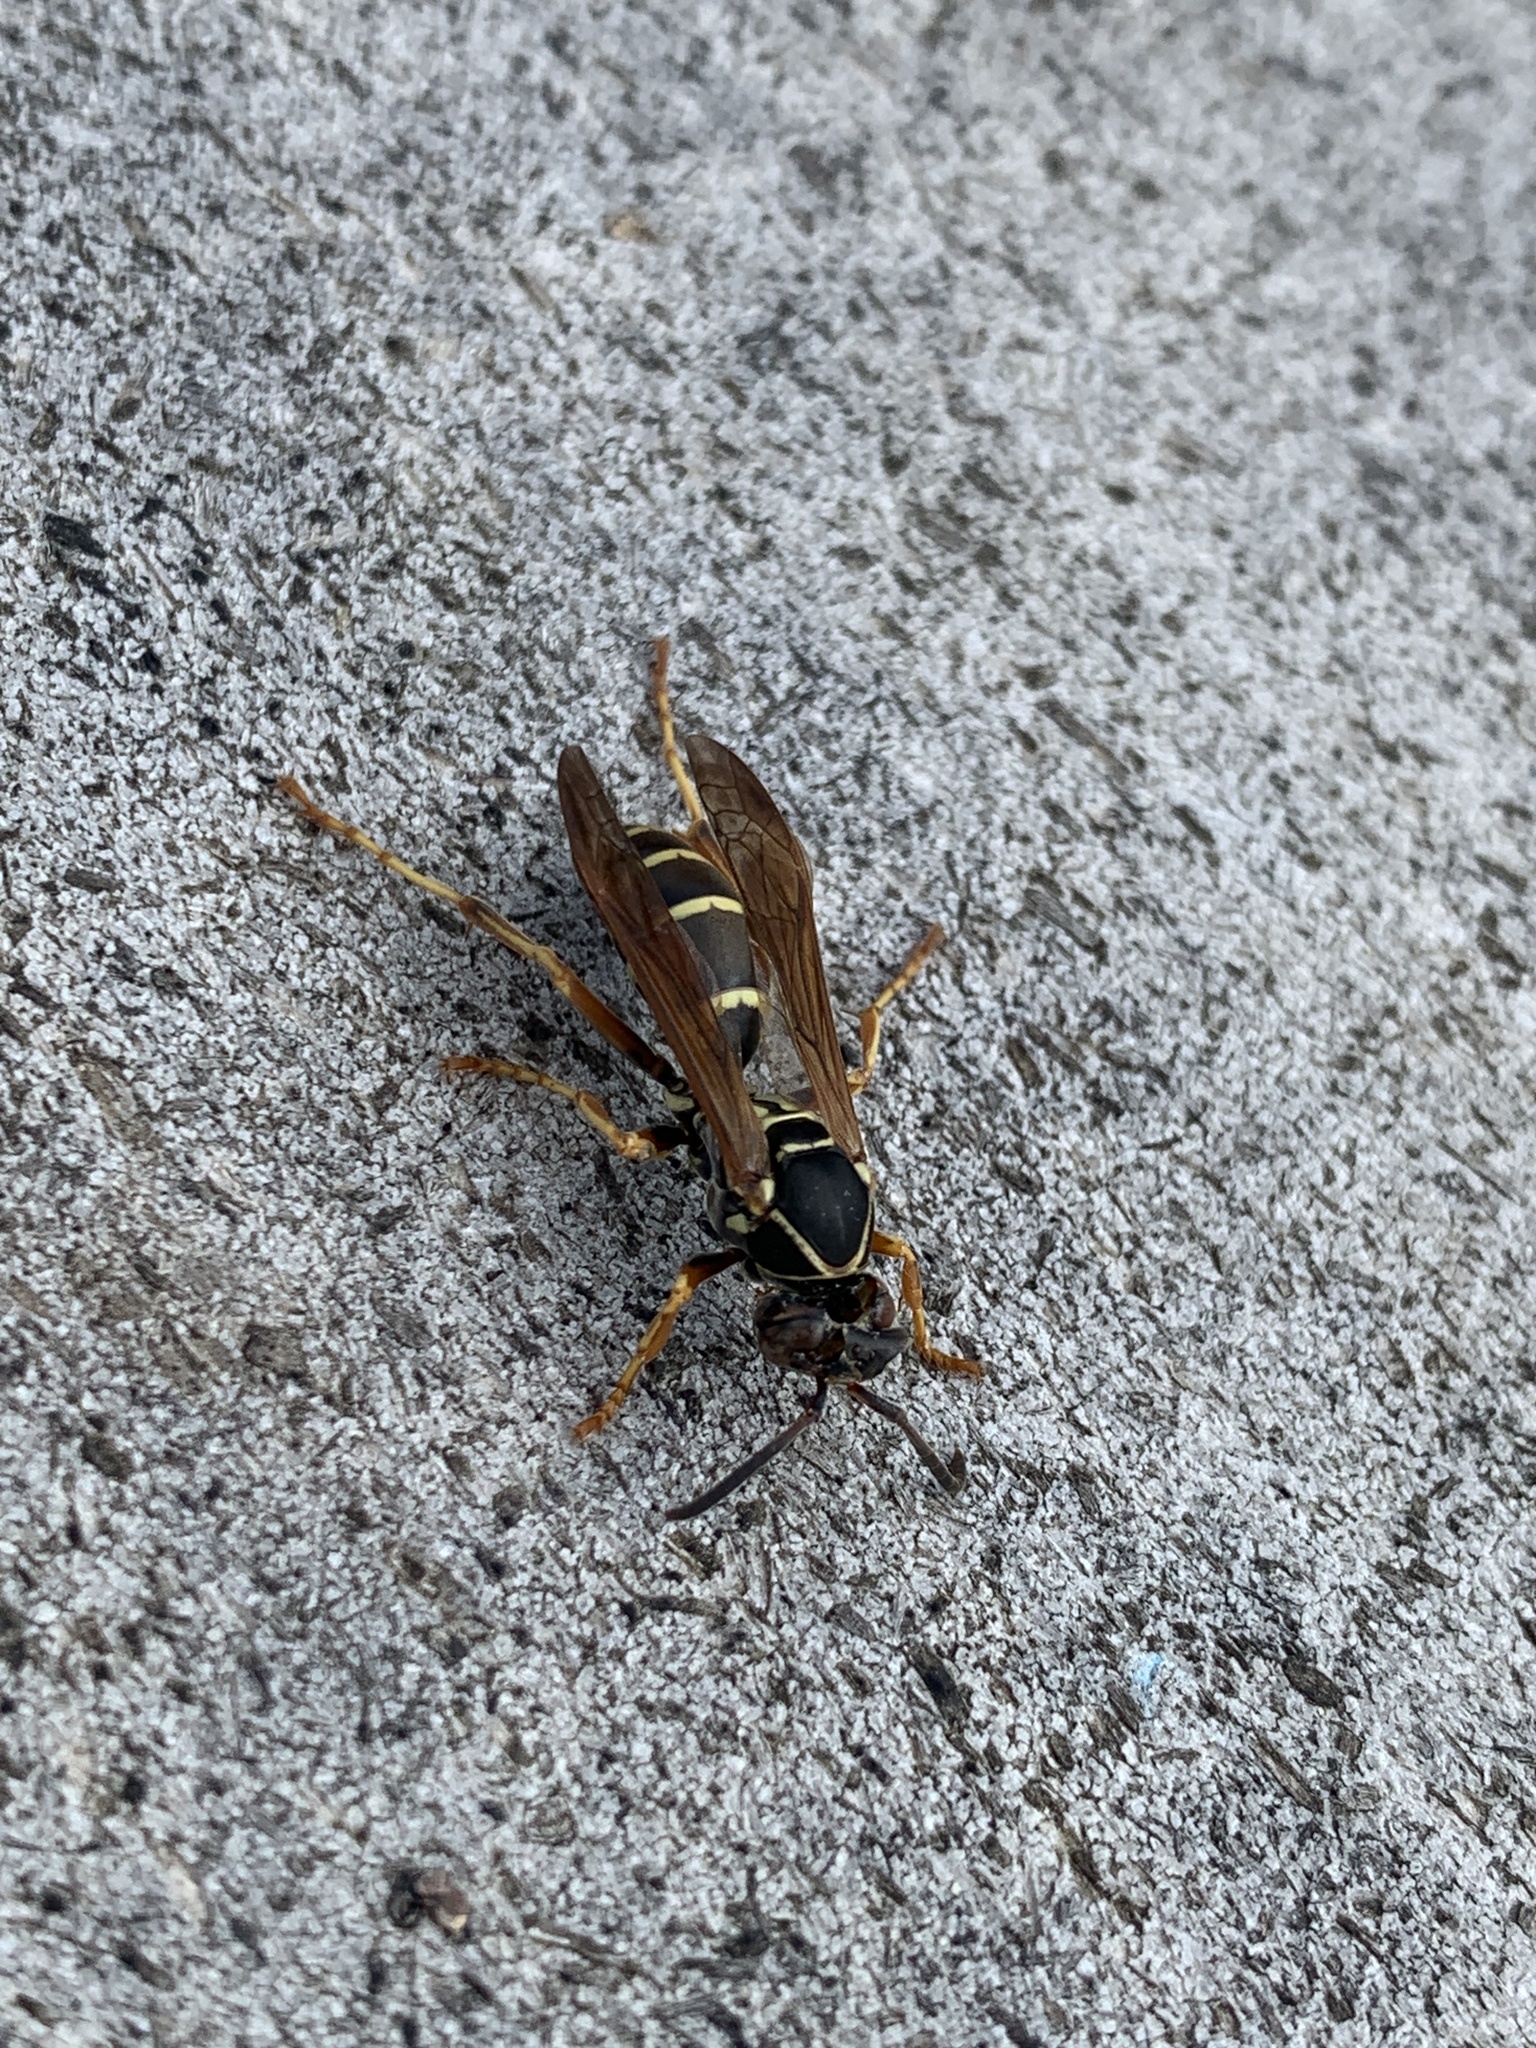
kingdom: Animalia
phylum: Arthropoda
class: Insecta
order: Hymenoptera
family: Eumenidae
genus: Polistes
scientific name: Polistes fuscatus
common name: Dark paper wasp
